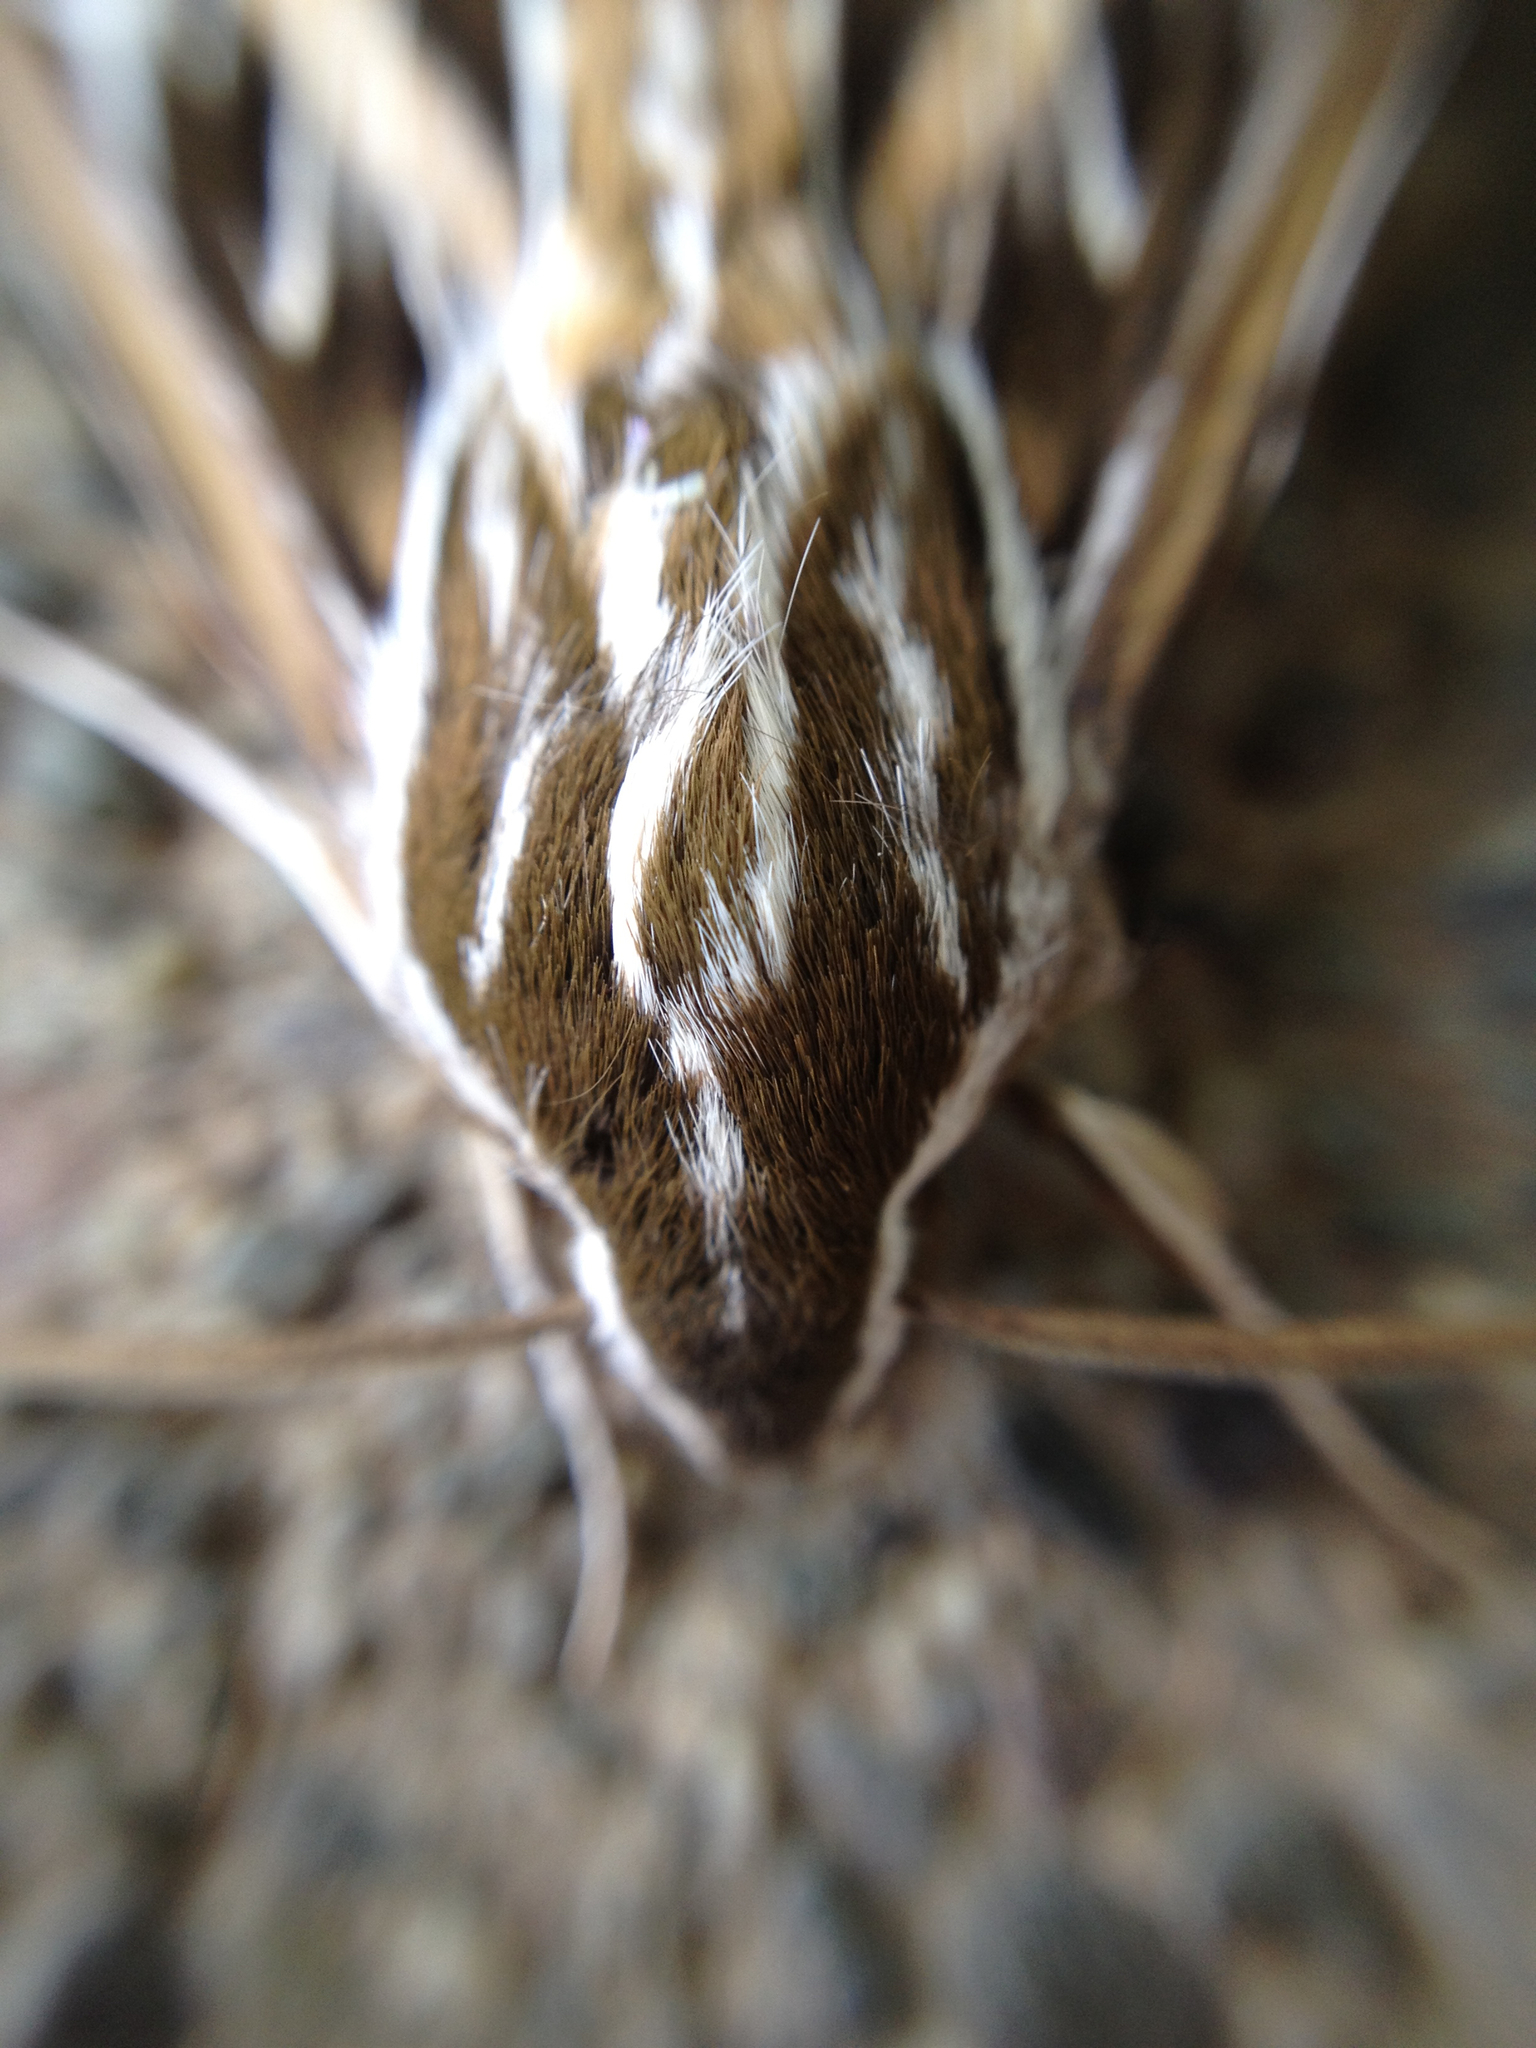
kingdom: Animalia
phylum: Arthropoda
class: Insecta
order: Lepidoptera
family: Sphingidae
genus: Hyles
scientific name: Hyles lineata
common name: White-lined sphinx
